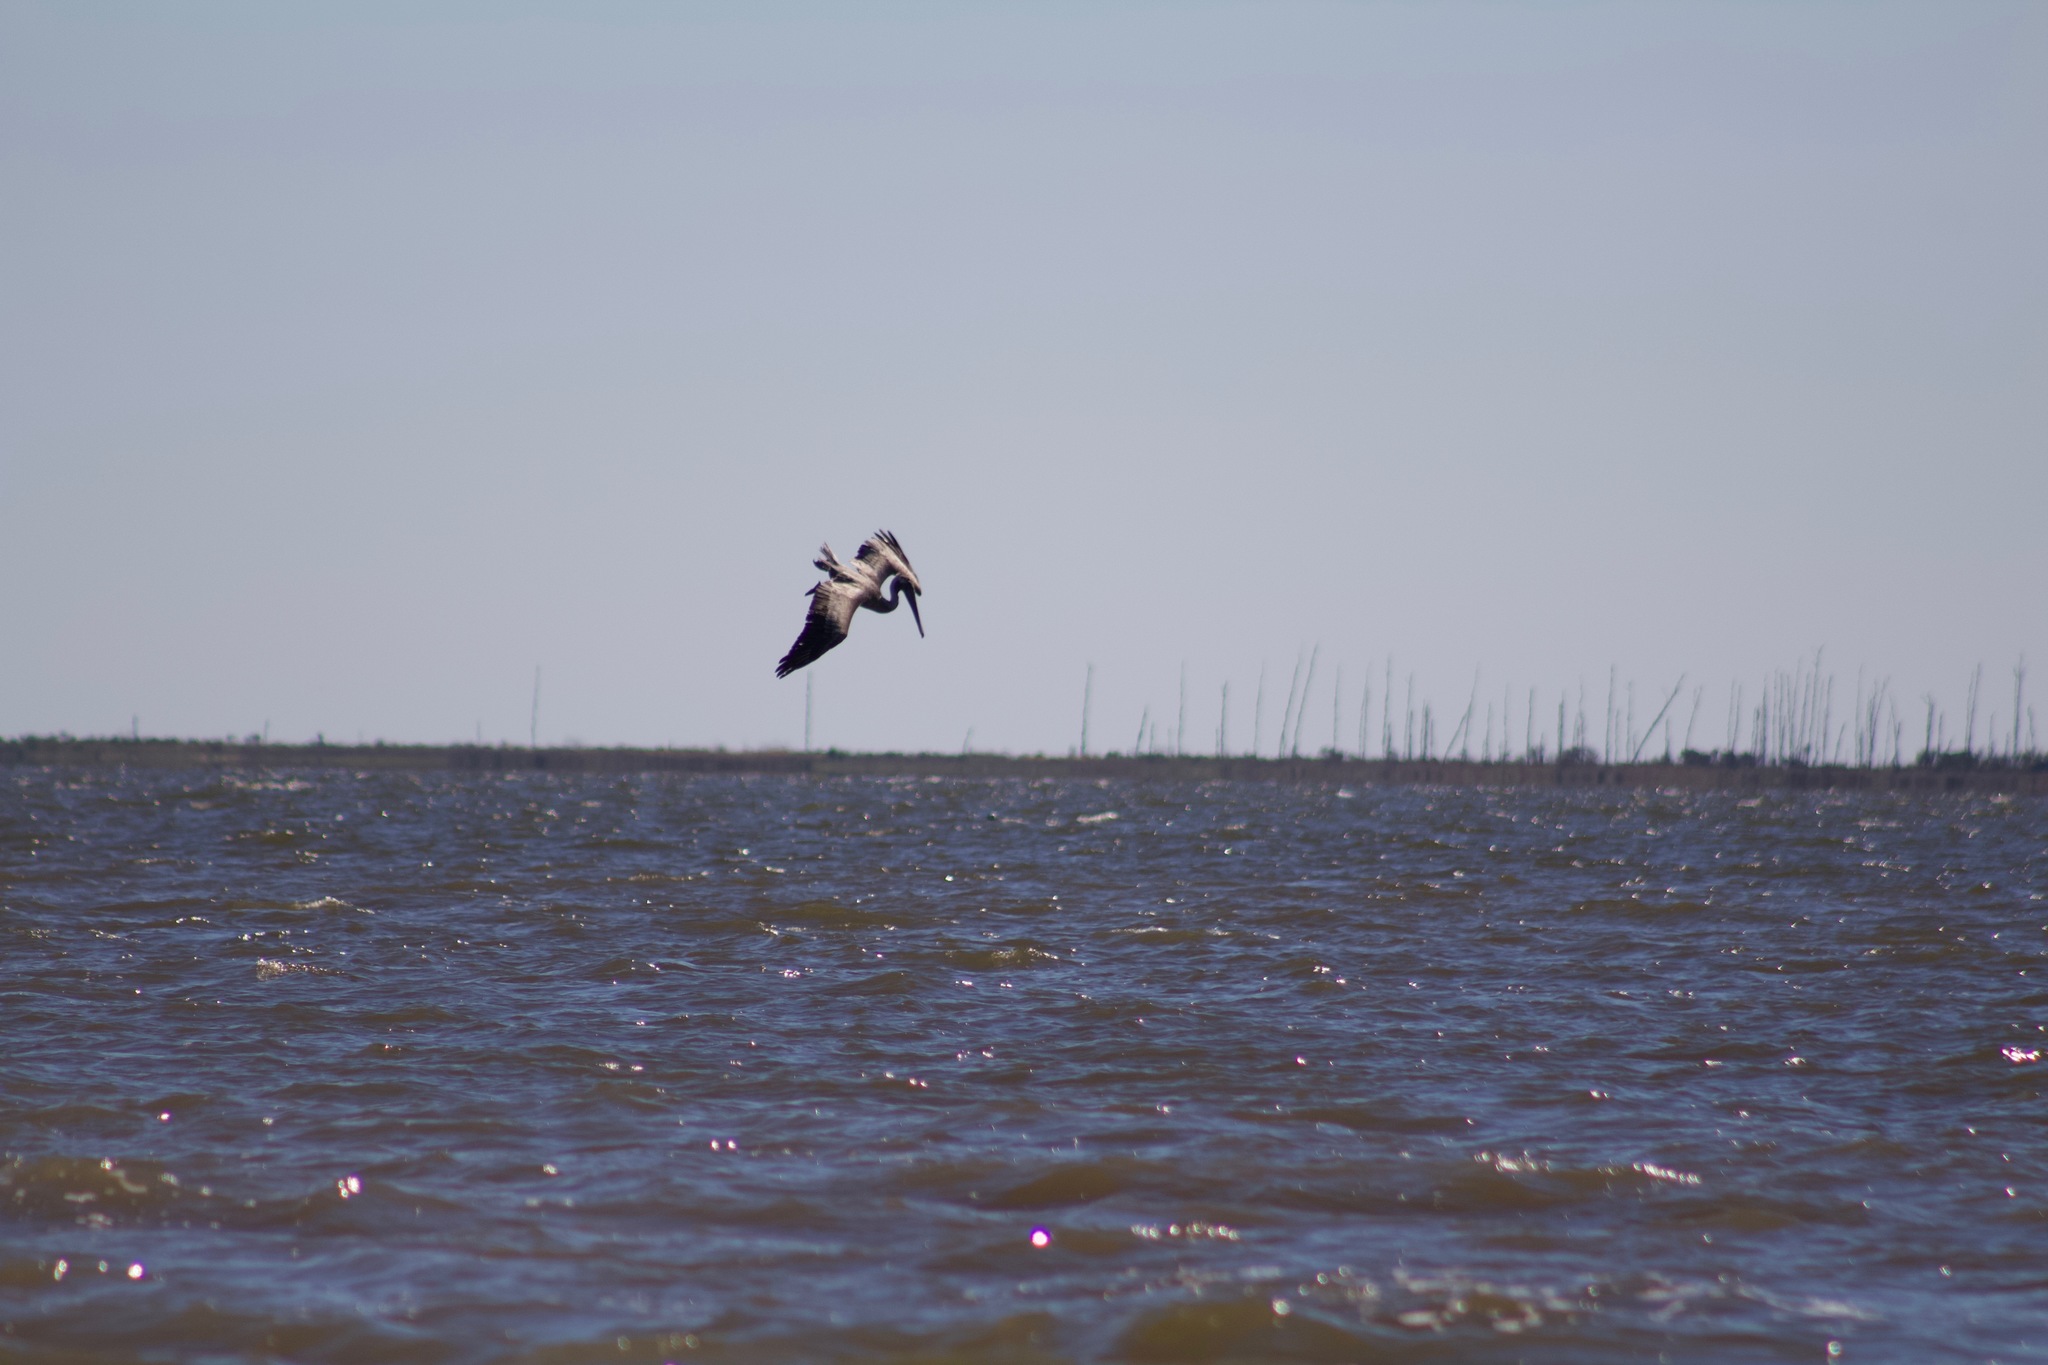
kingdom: Animalia
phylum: Chordata
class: Aves
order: Pelecaniformes
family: Pelecanidae
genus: Pelecanus
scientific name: Pelecanus occidentalis
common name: Brown pelican
